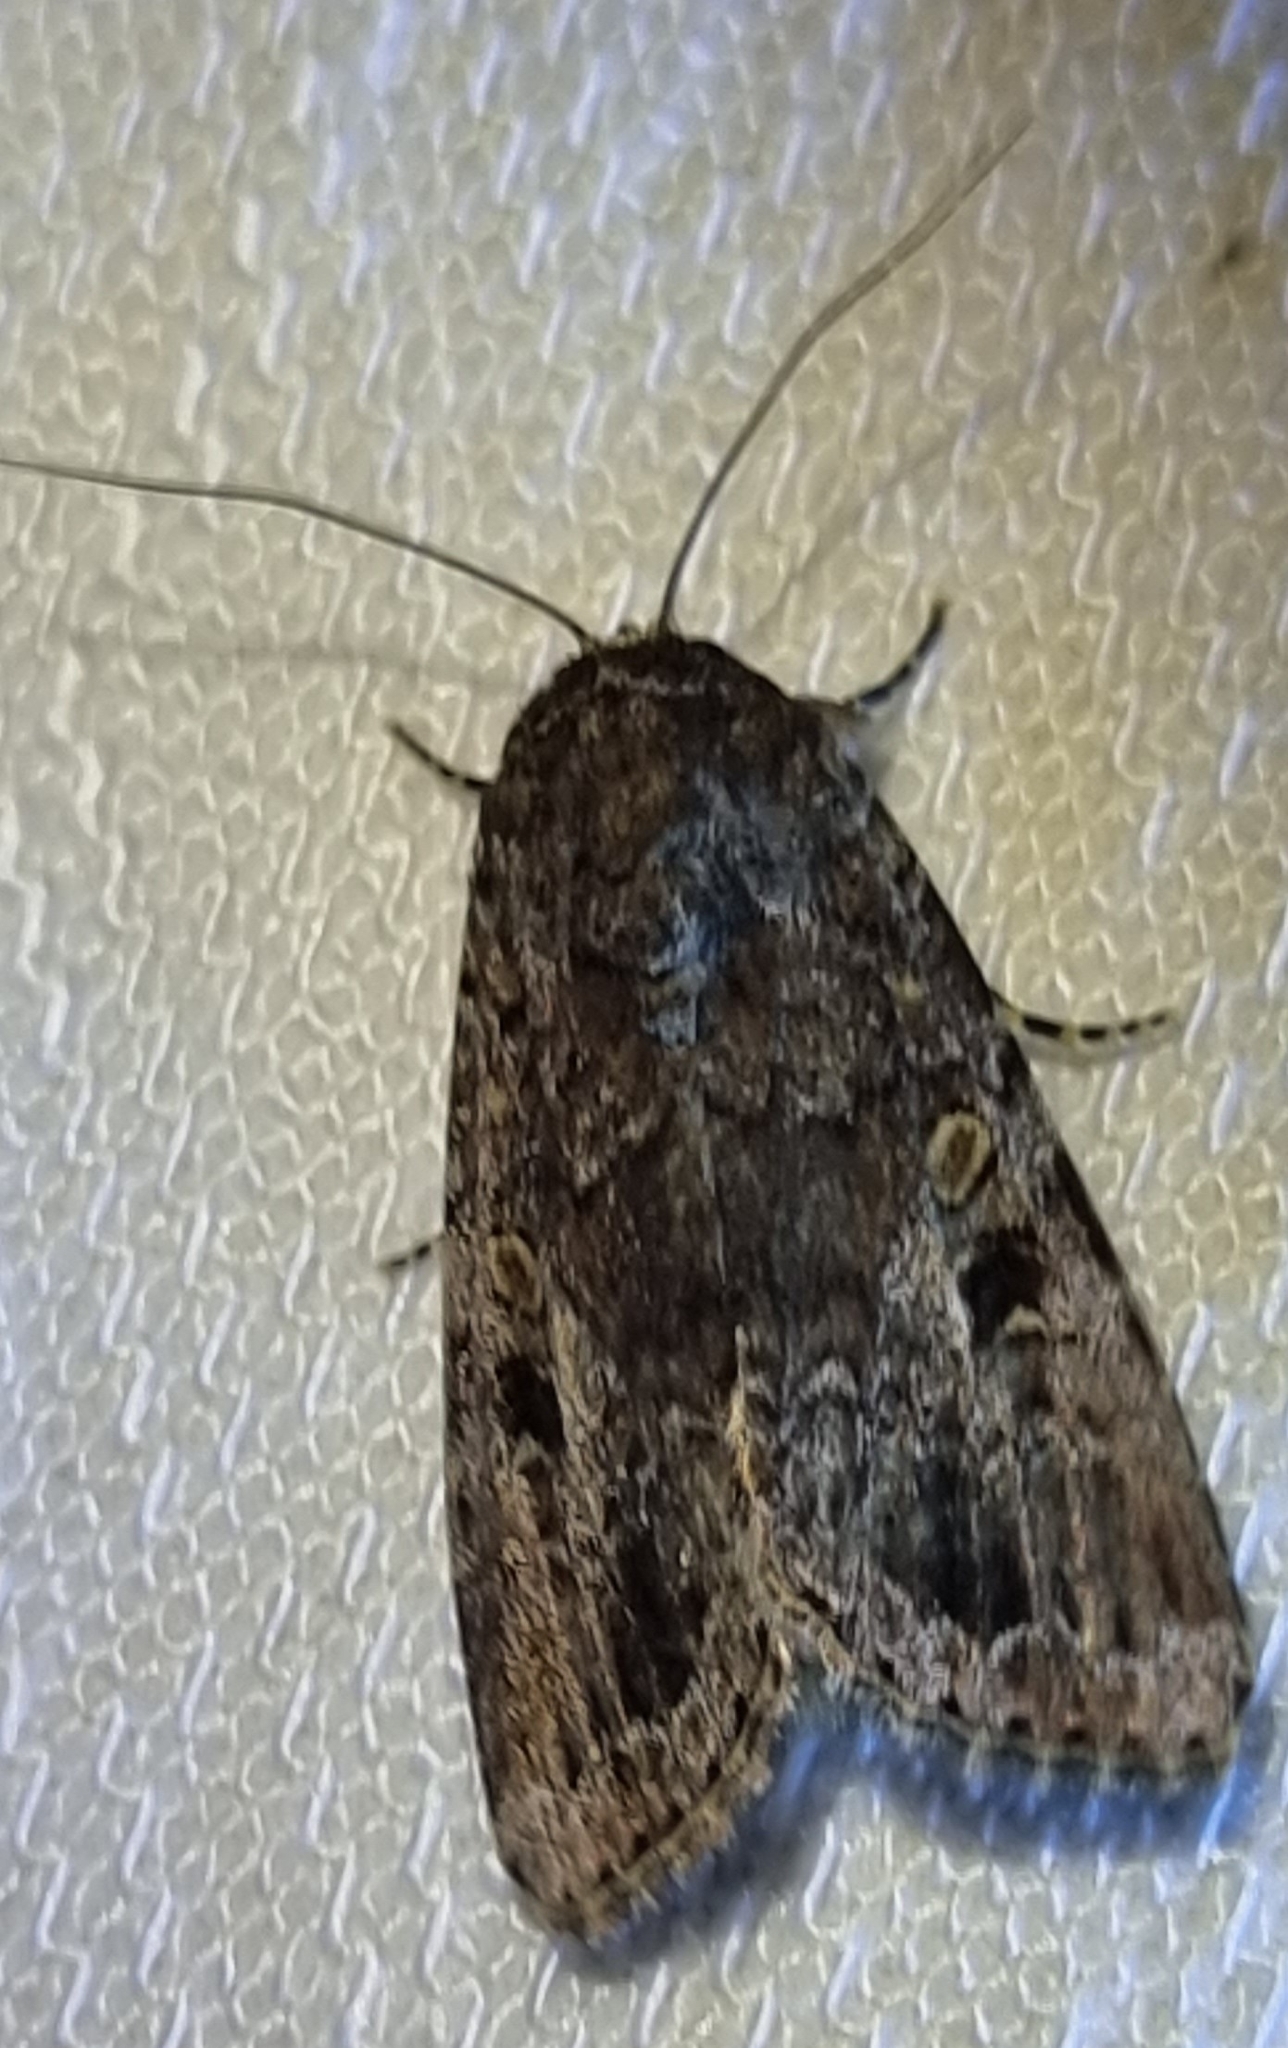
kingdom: Animalia
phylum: Arthropoda
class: Insecta
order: Lepidoptera
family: Noctuidae
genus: Spodoptera
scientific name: Spodoptera mauritia
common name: Lawn armyworm
